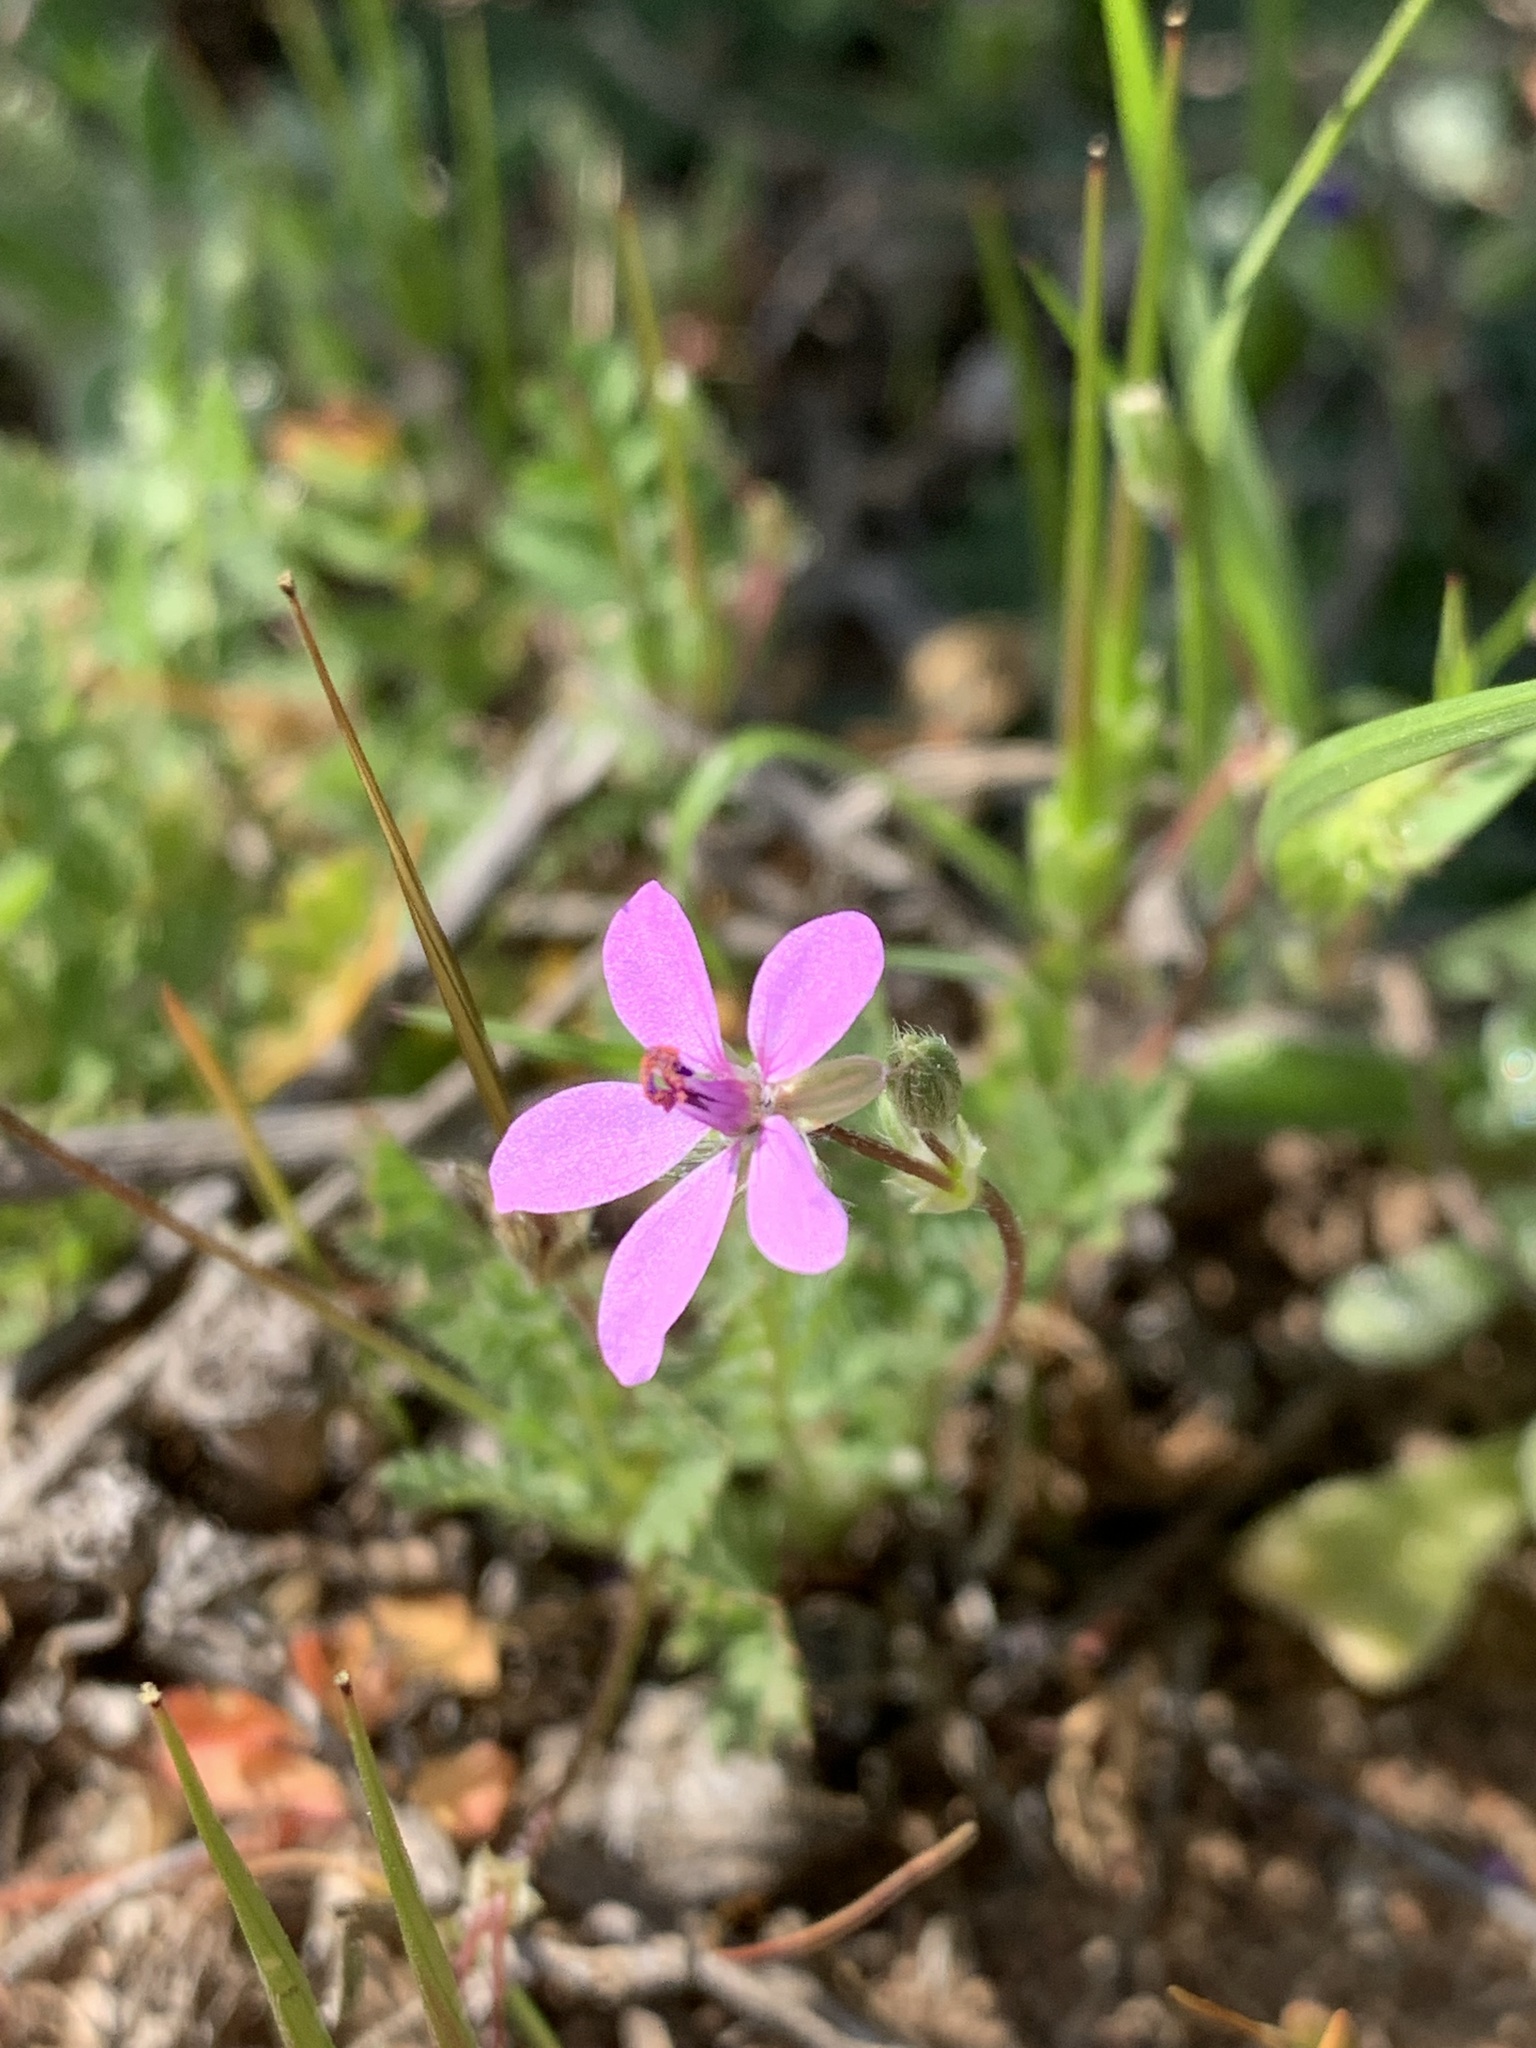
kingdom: Plantae
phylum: Tracheophyta
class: Magnoliopsida
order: Geraniales
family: Geraniaceae
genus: Erodium
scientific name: Erodium cicutarium
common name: Common stork's-bill
